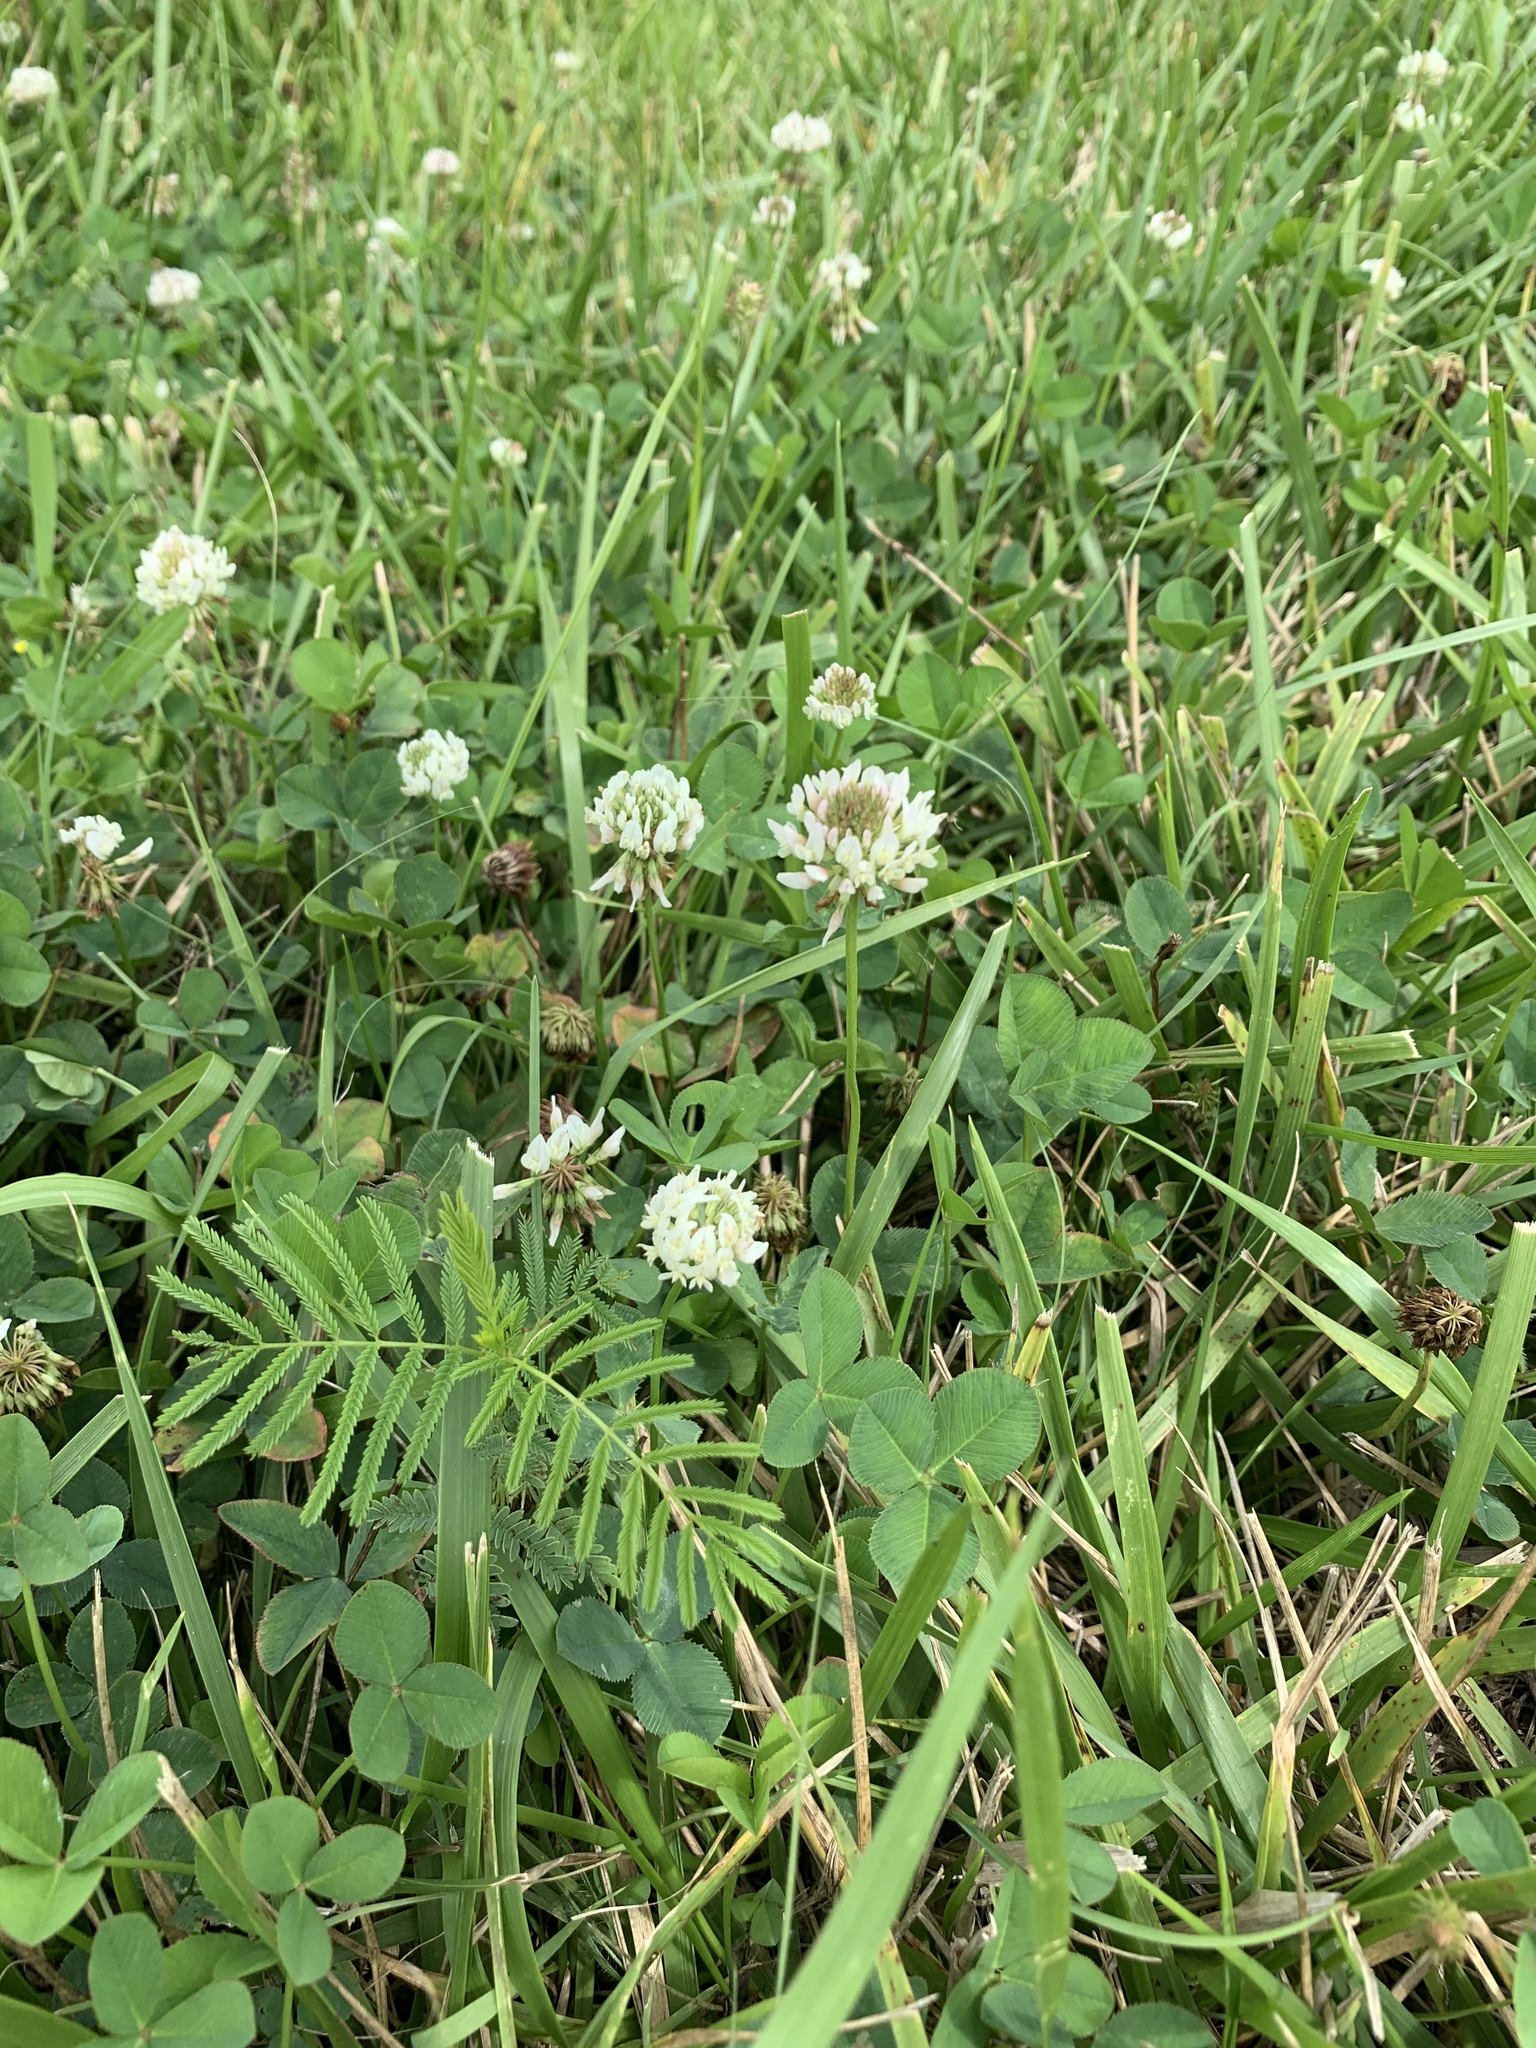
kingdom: Plantae
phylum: Tracheophyta
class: Magnoliopsida
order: Fabales
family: Fabaceae
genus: Trifolium
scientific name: Trifolium repens
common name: White clover
